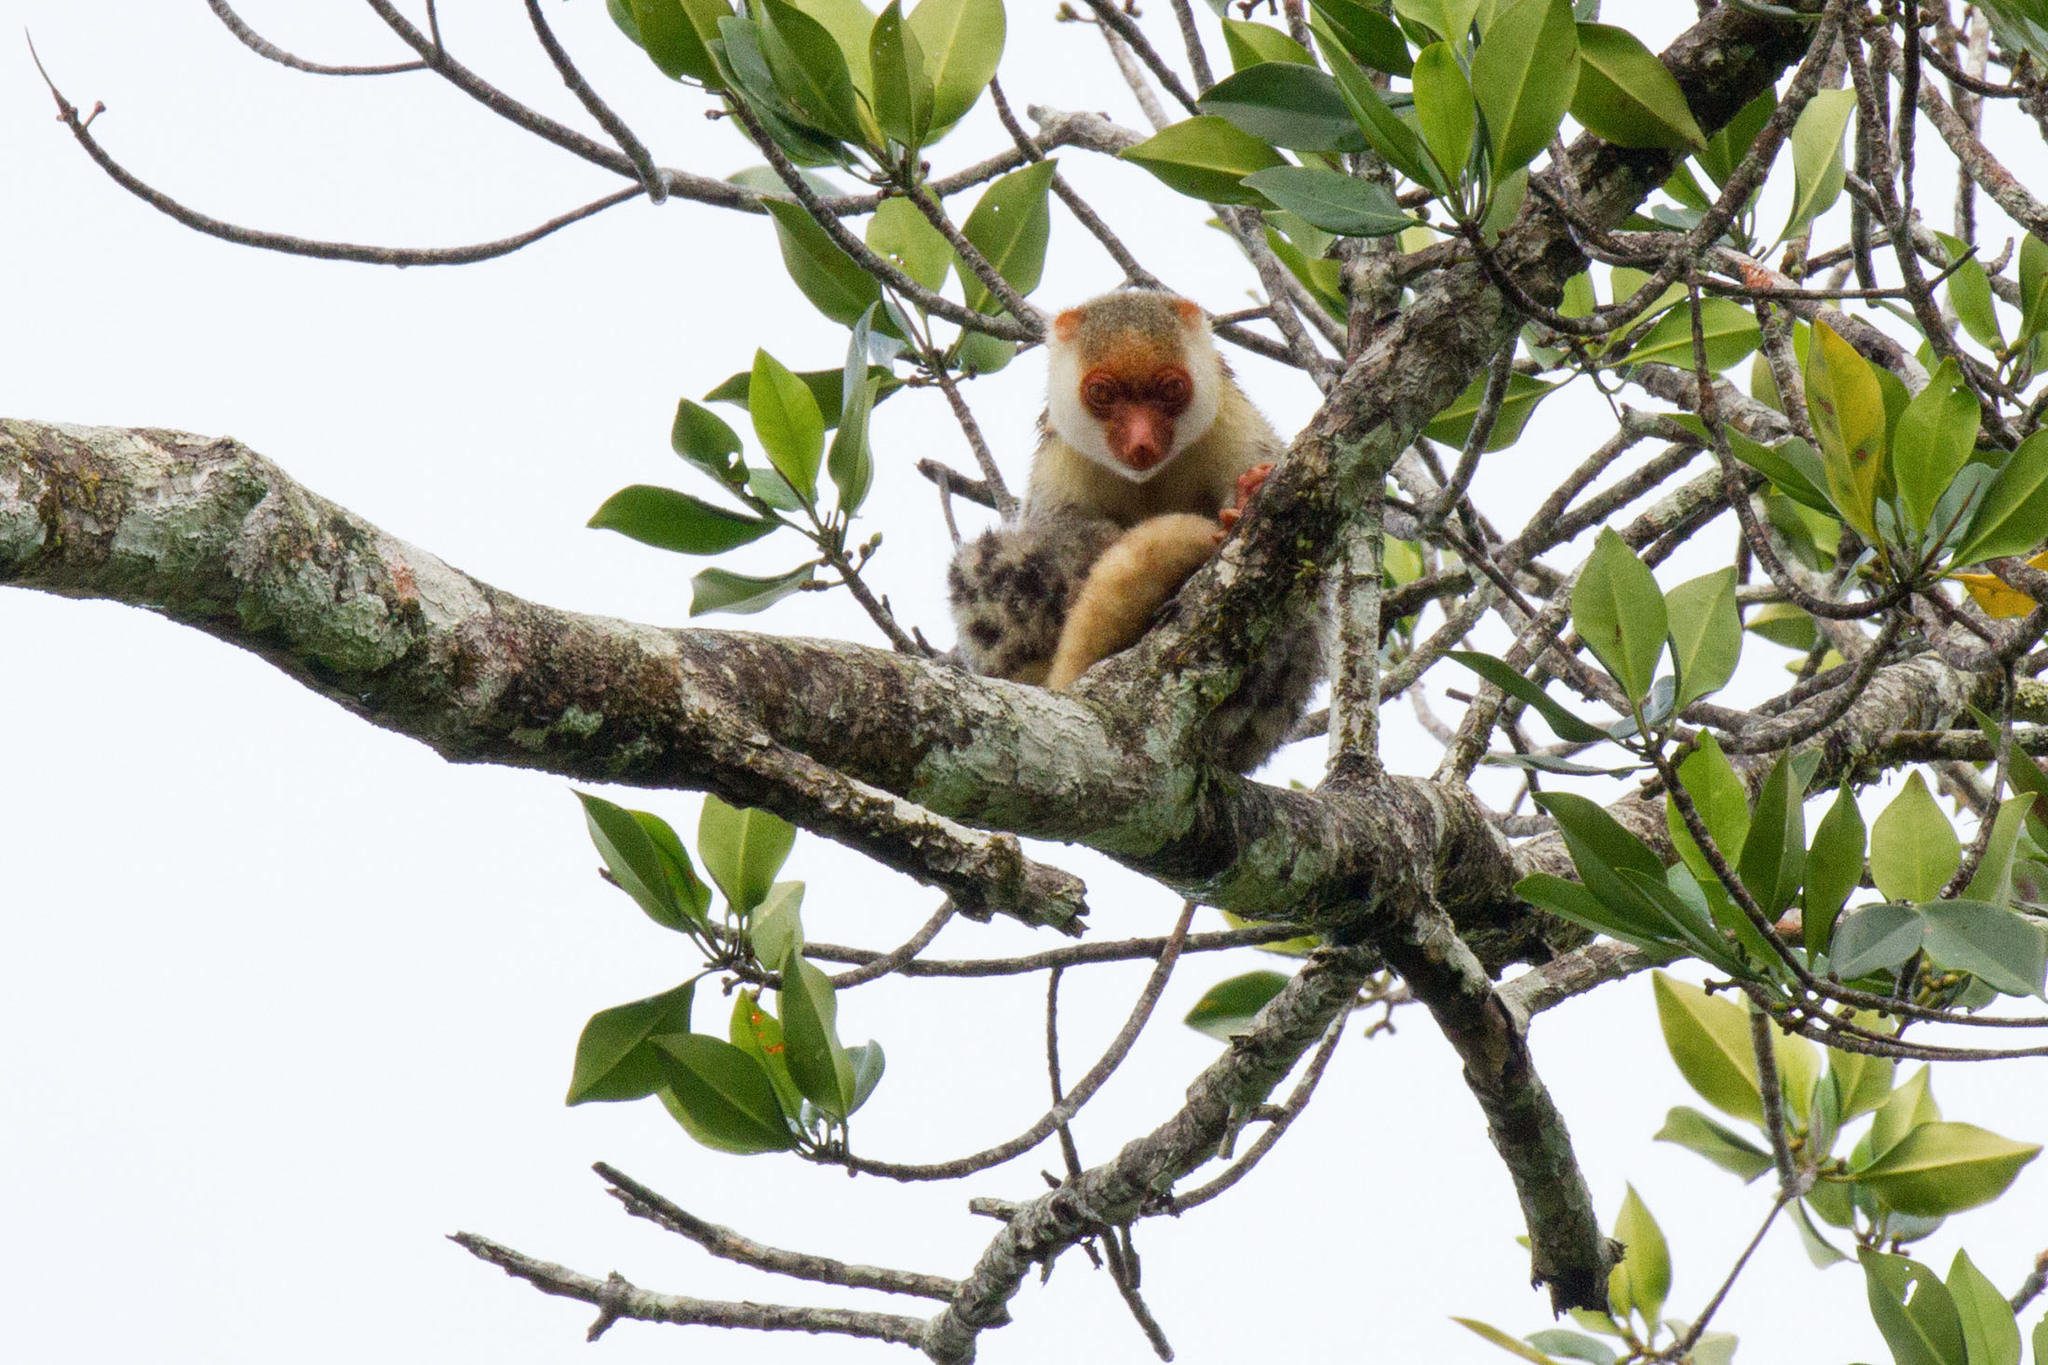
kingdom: Animalia
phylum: Chordata
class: Mammalia
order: Diprotodontia
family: Phalangeridae
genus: Spilocuscus
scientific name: Spilocuscus papuensis
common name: Waigeou cuscus
